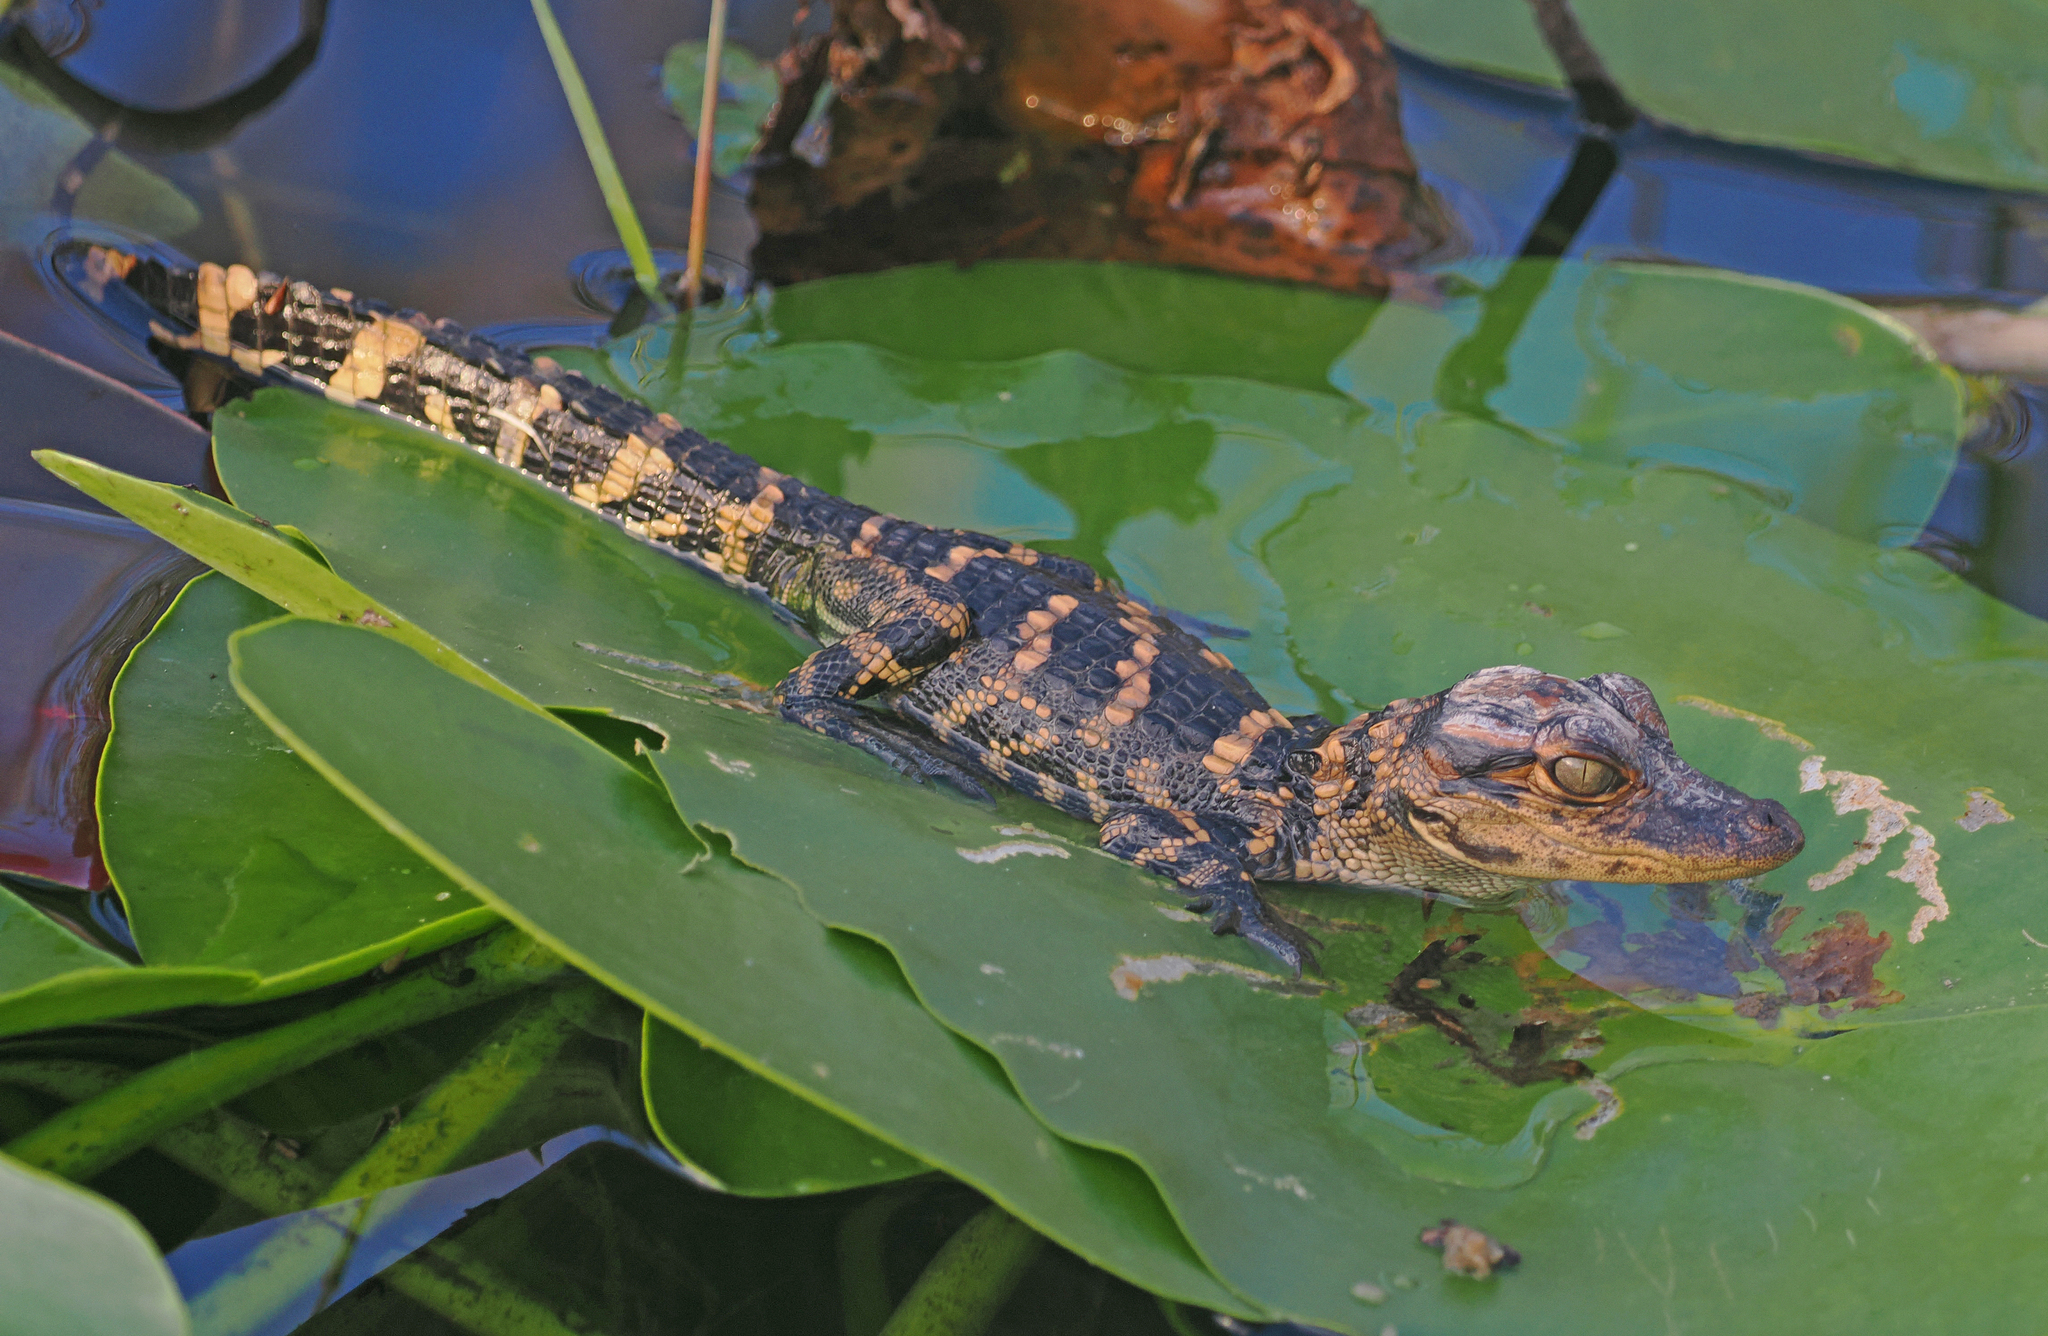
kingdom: Animalia
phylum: Chordata
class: Crocodylia
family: Alligatoridae
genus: Alligator
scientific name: Alligator mississippiensis
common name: American alligator
